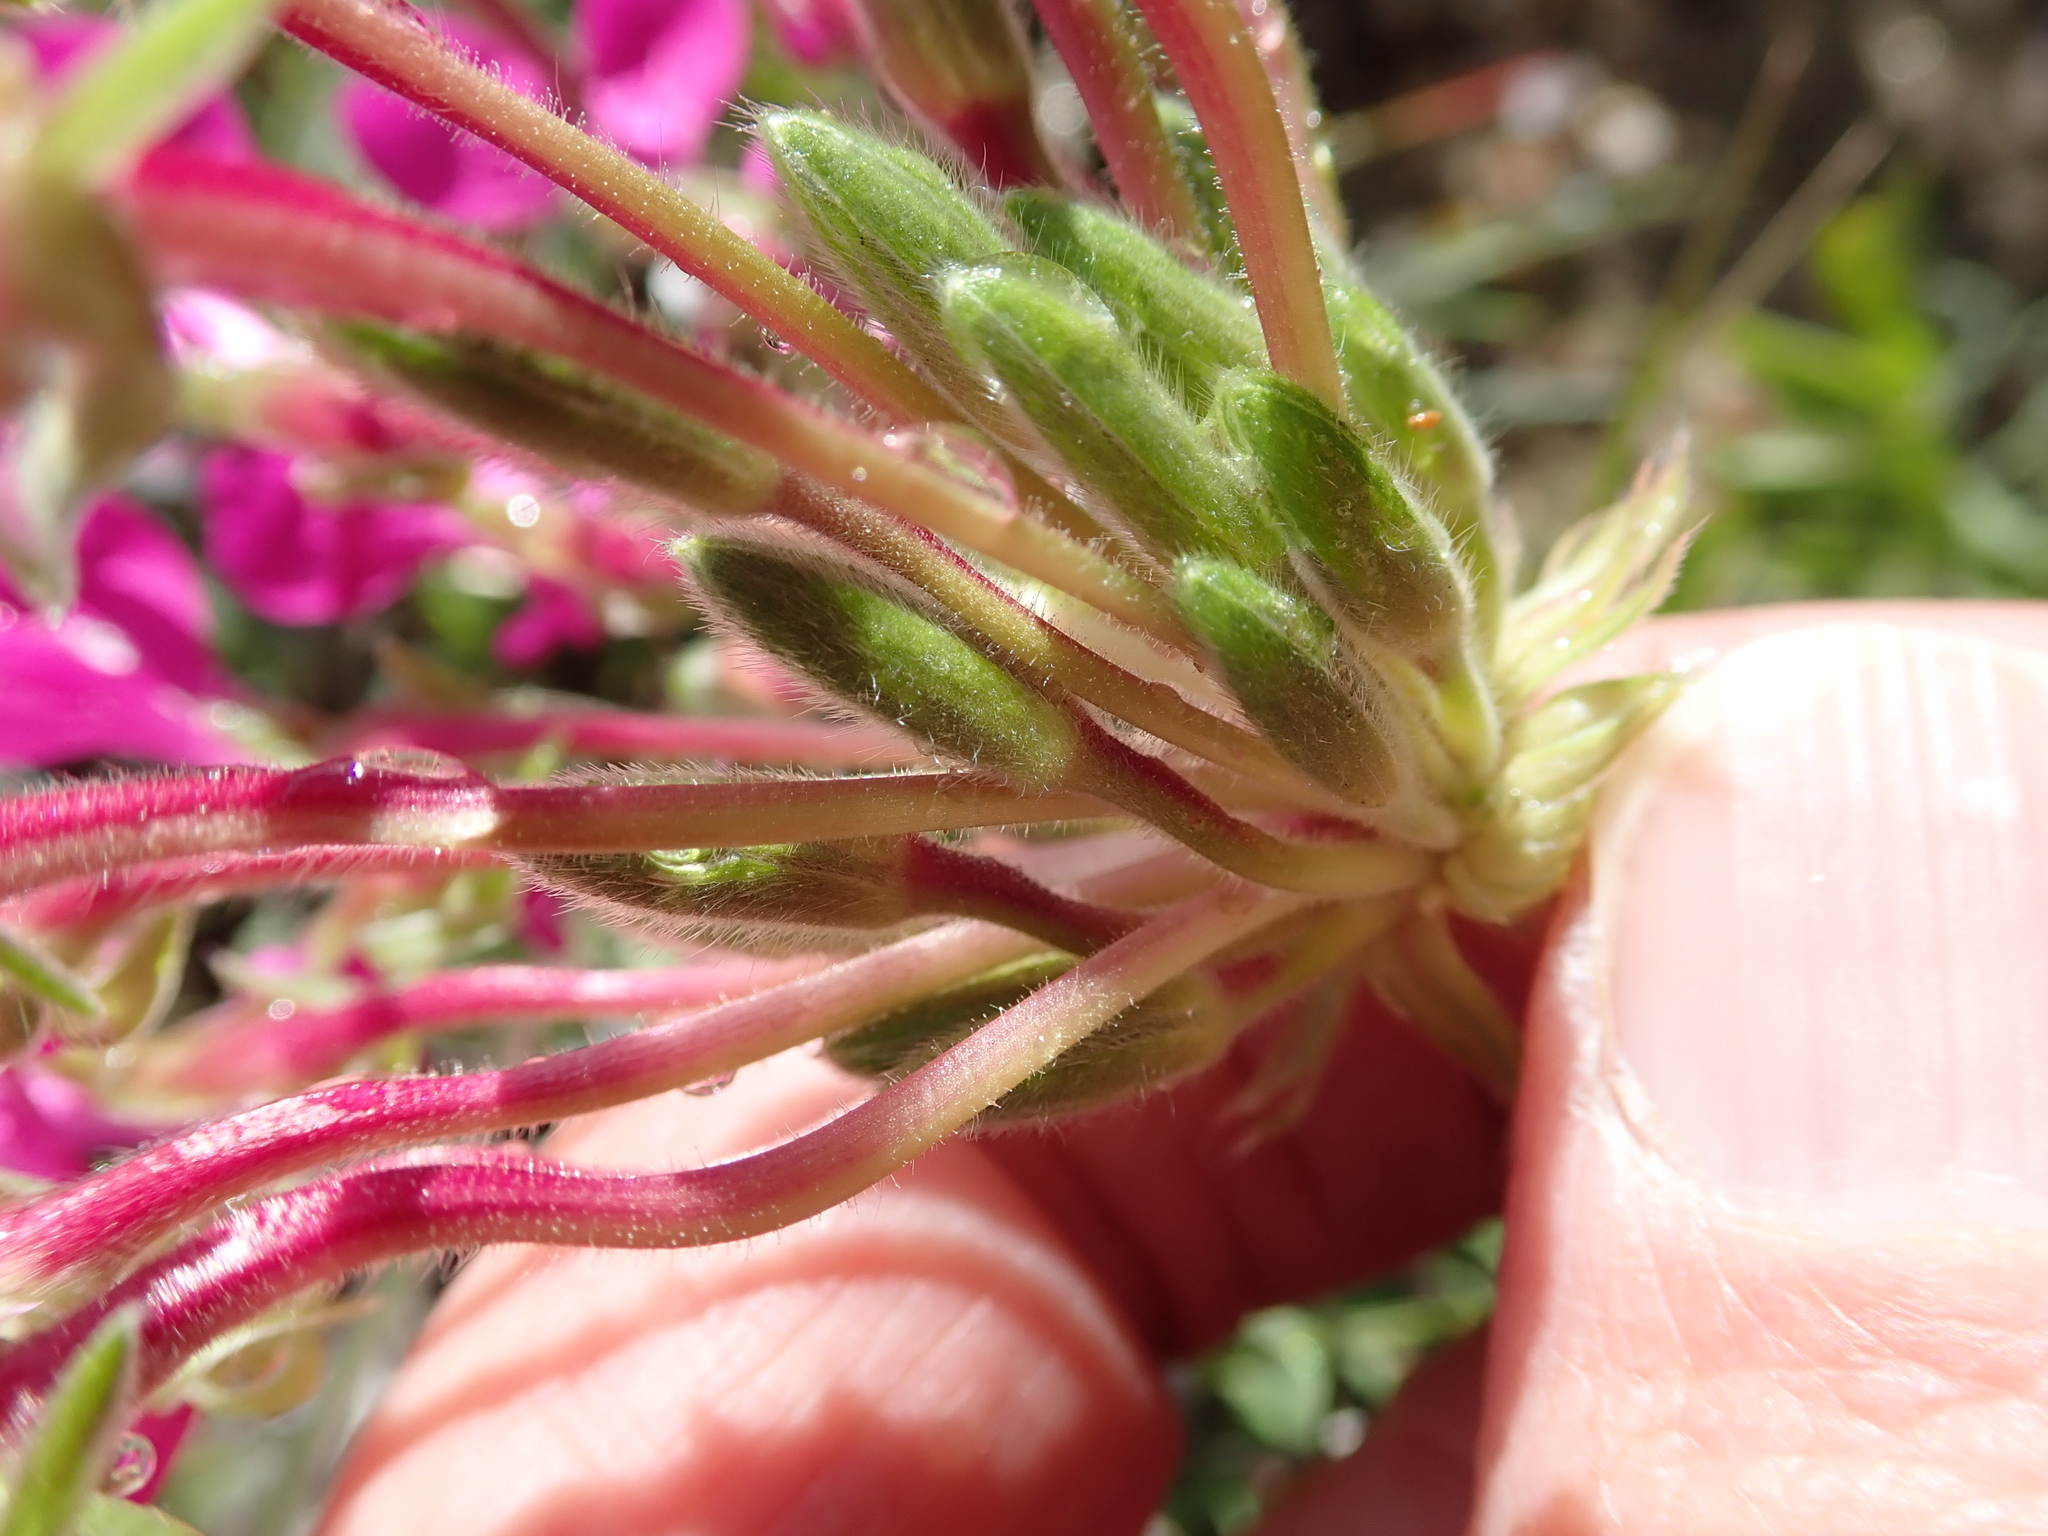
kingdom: Plantae
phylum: Tracheophyta
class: Magnoliopsida
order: Geraniales
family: Geraniaceae
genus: Pelargonium
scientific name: Pelargonium incrassatum
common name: Namaqualand beauty
